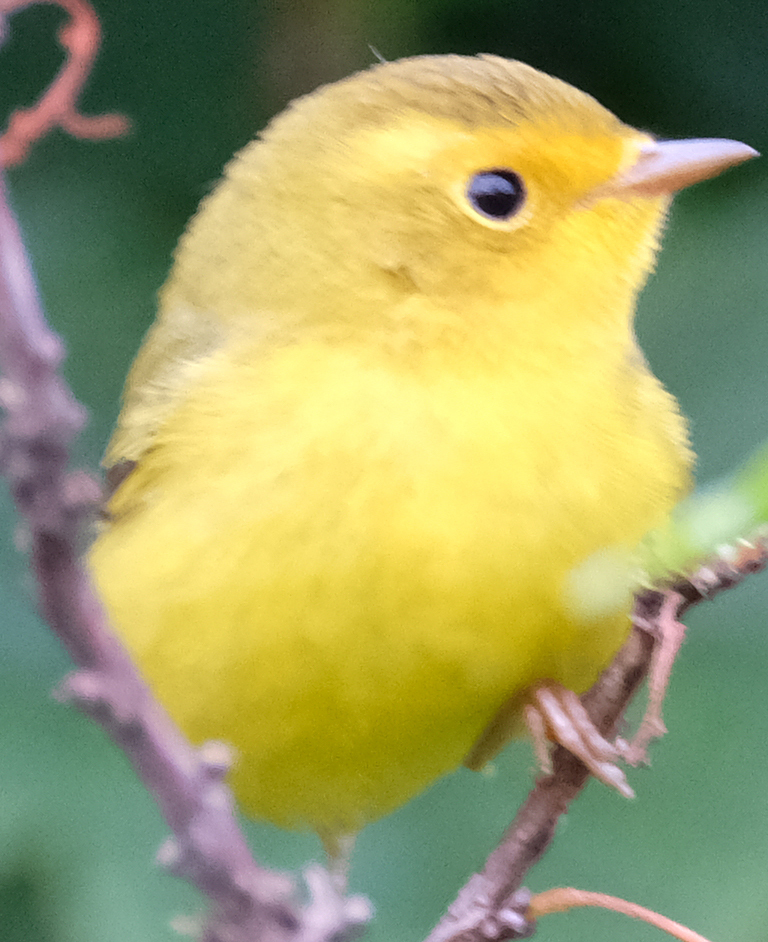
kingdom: Animalia
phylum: Chordata
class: Aves
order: Passeriformes
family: Parulidae
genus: Cardellina
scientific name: Cardellina pusilla
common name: Wilson's warbler
